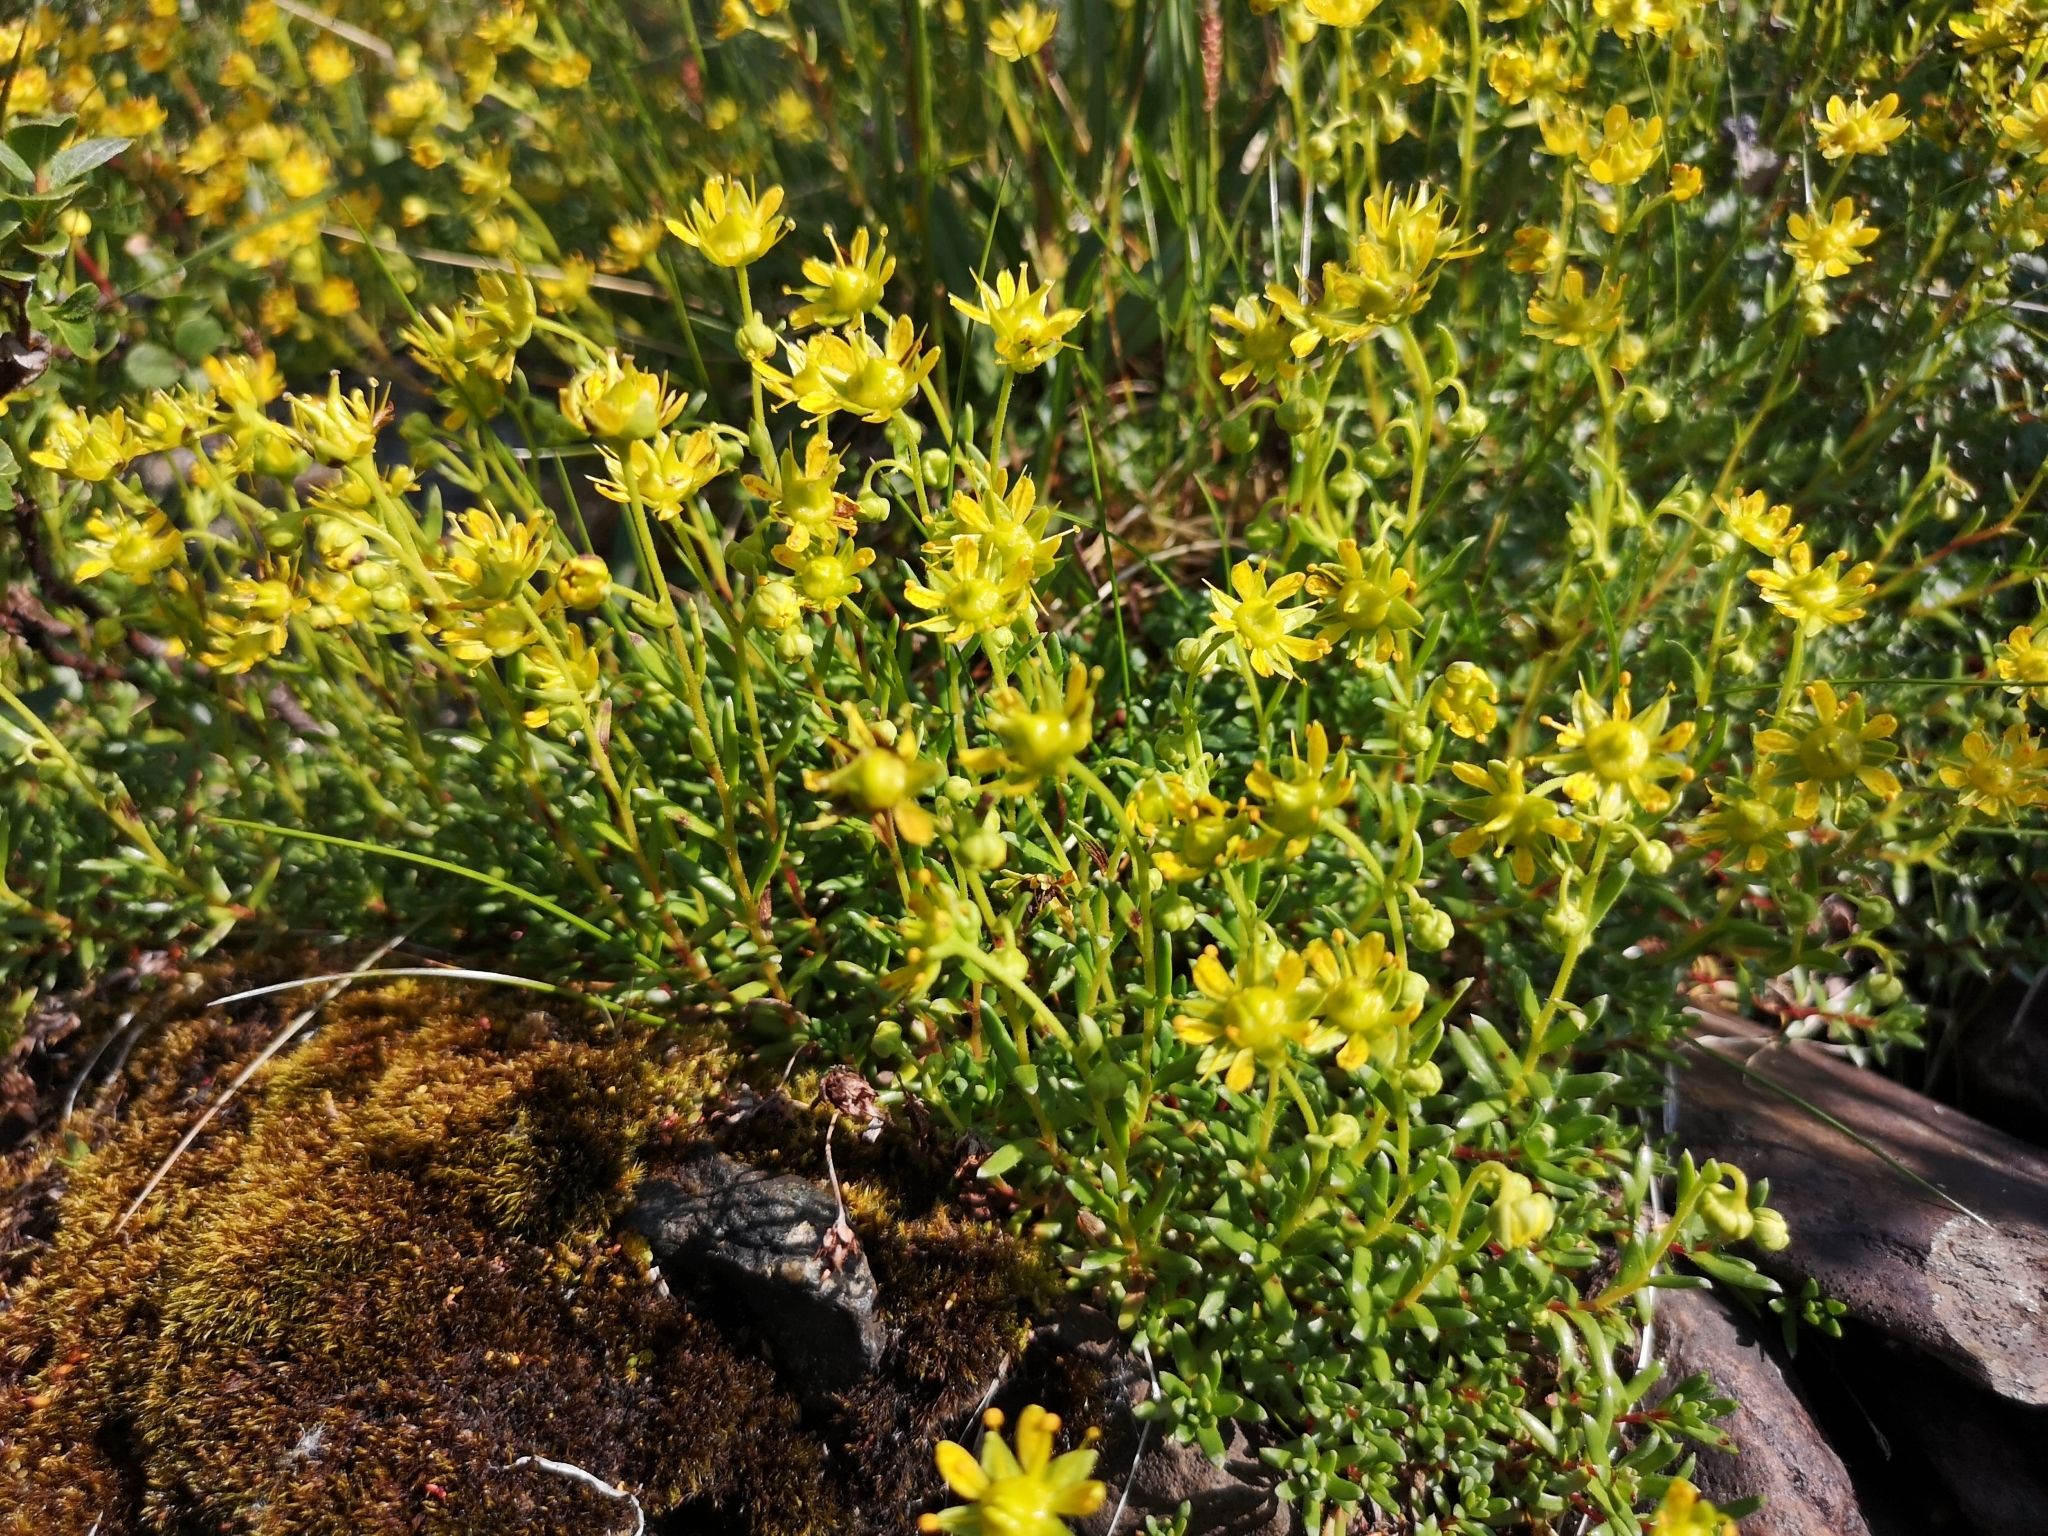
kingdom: Plantae
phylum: Tracheophyta
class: Magnoliopsida
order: Saxifragales
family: Saxifragaceae
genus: Saxifraga
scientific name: Saxifraga aizoides
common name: Yellow mountain saxifrage
